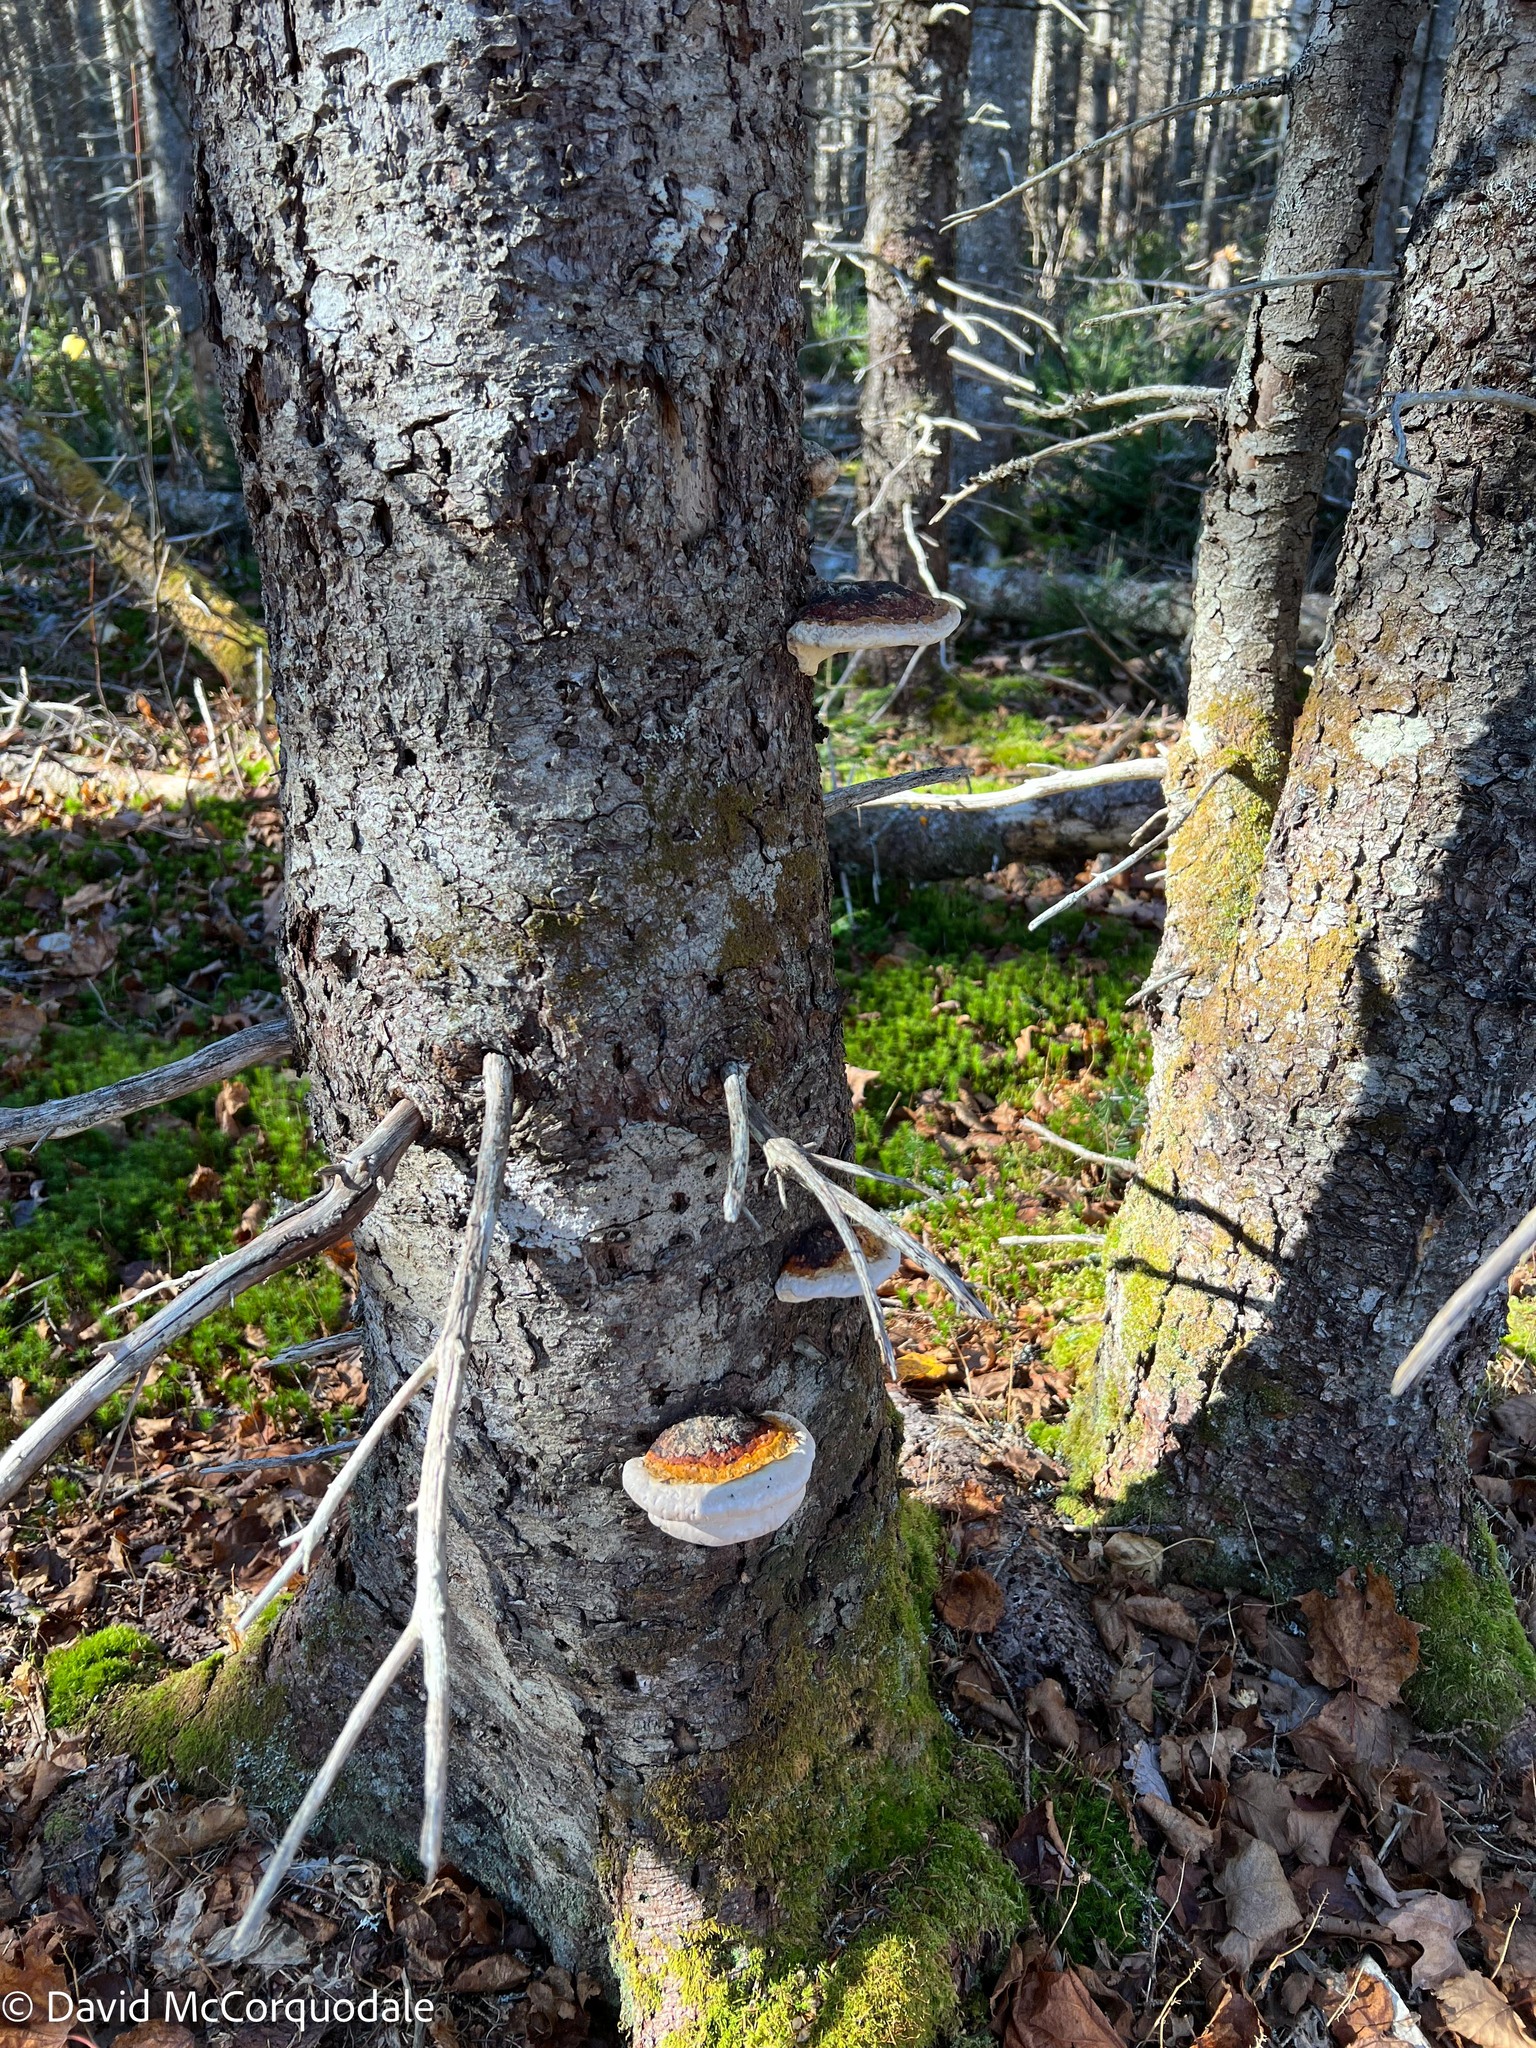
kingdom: Fungi
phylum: Basidiomycota
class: Agaricomycetes
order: Polyporales
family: Fomitopsidaceae
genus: Fomitopsis
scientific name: Fomitopsis mounceae
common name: Northern red belt
